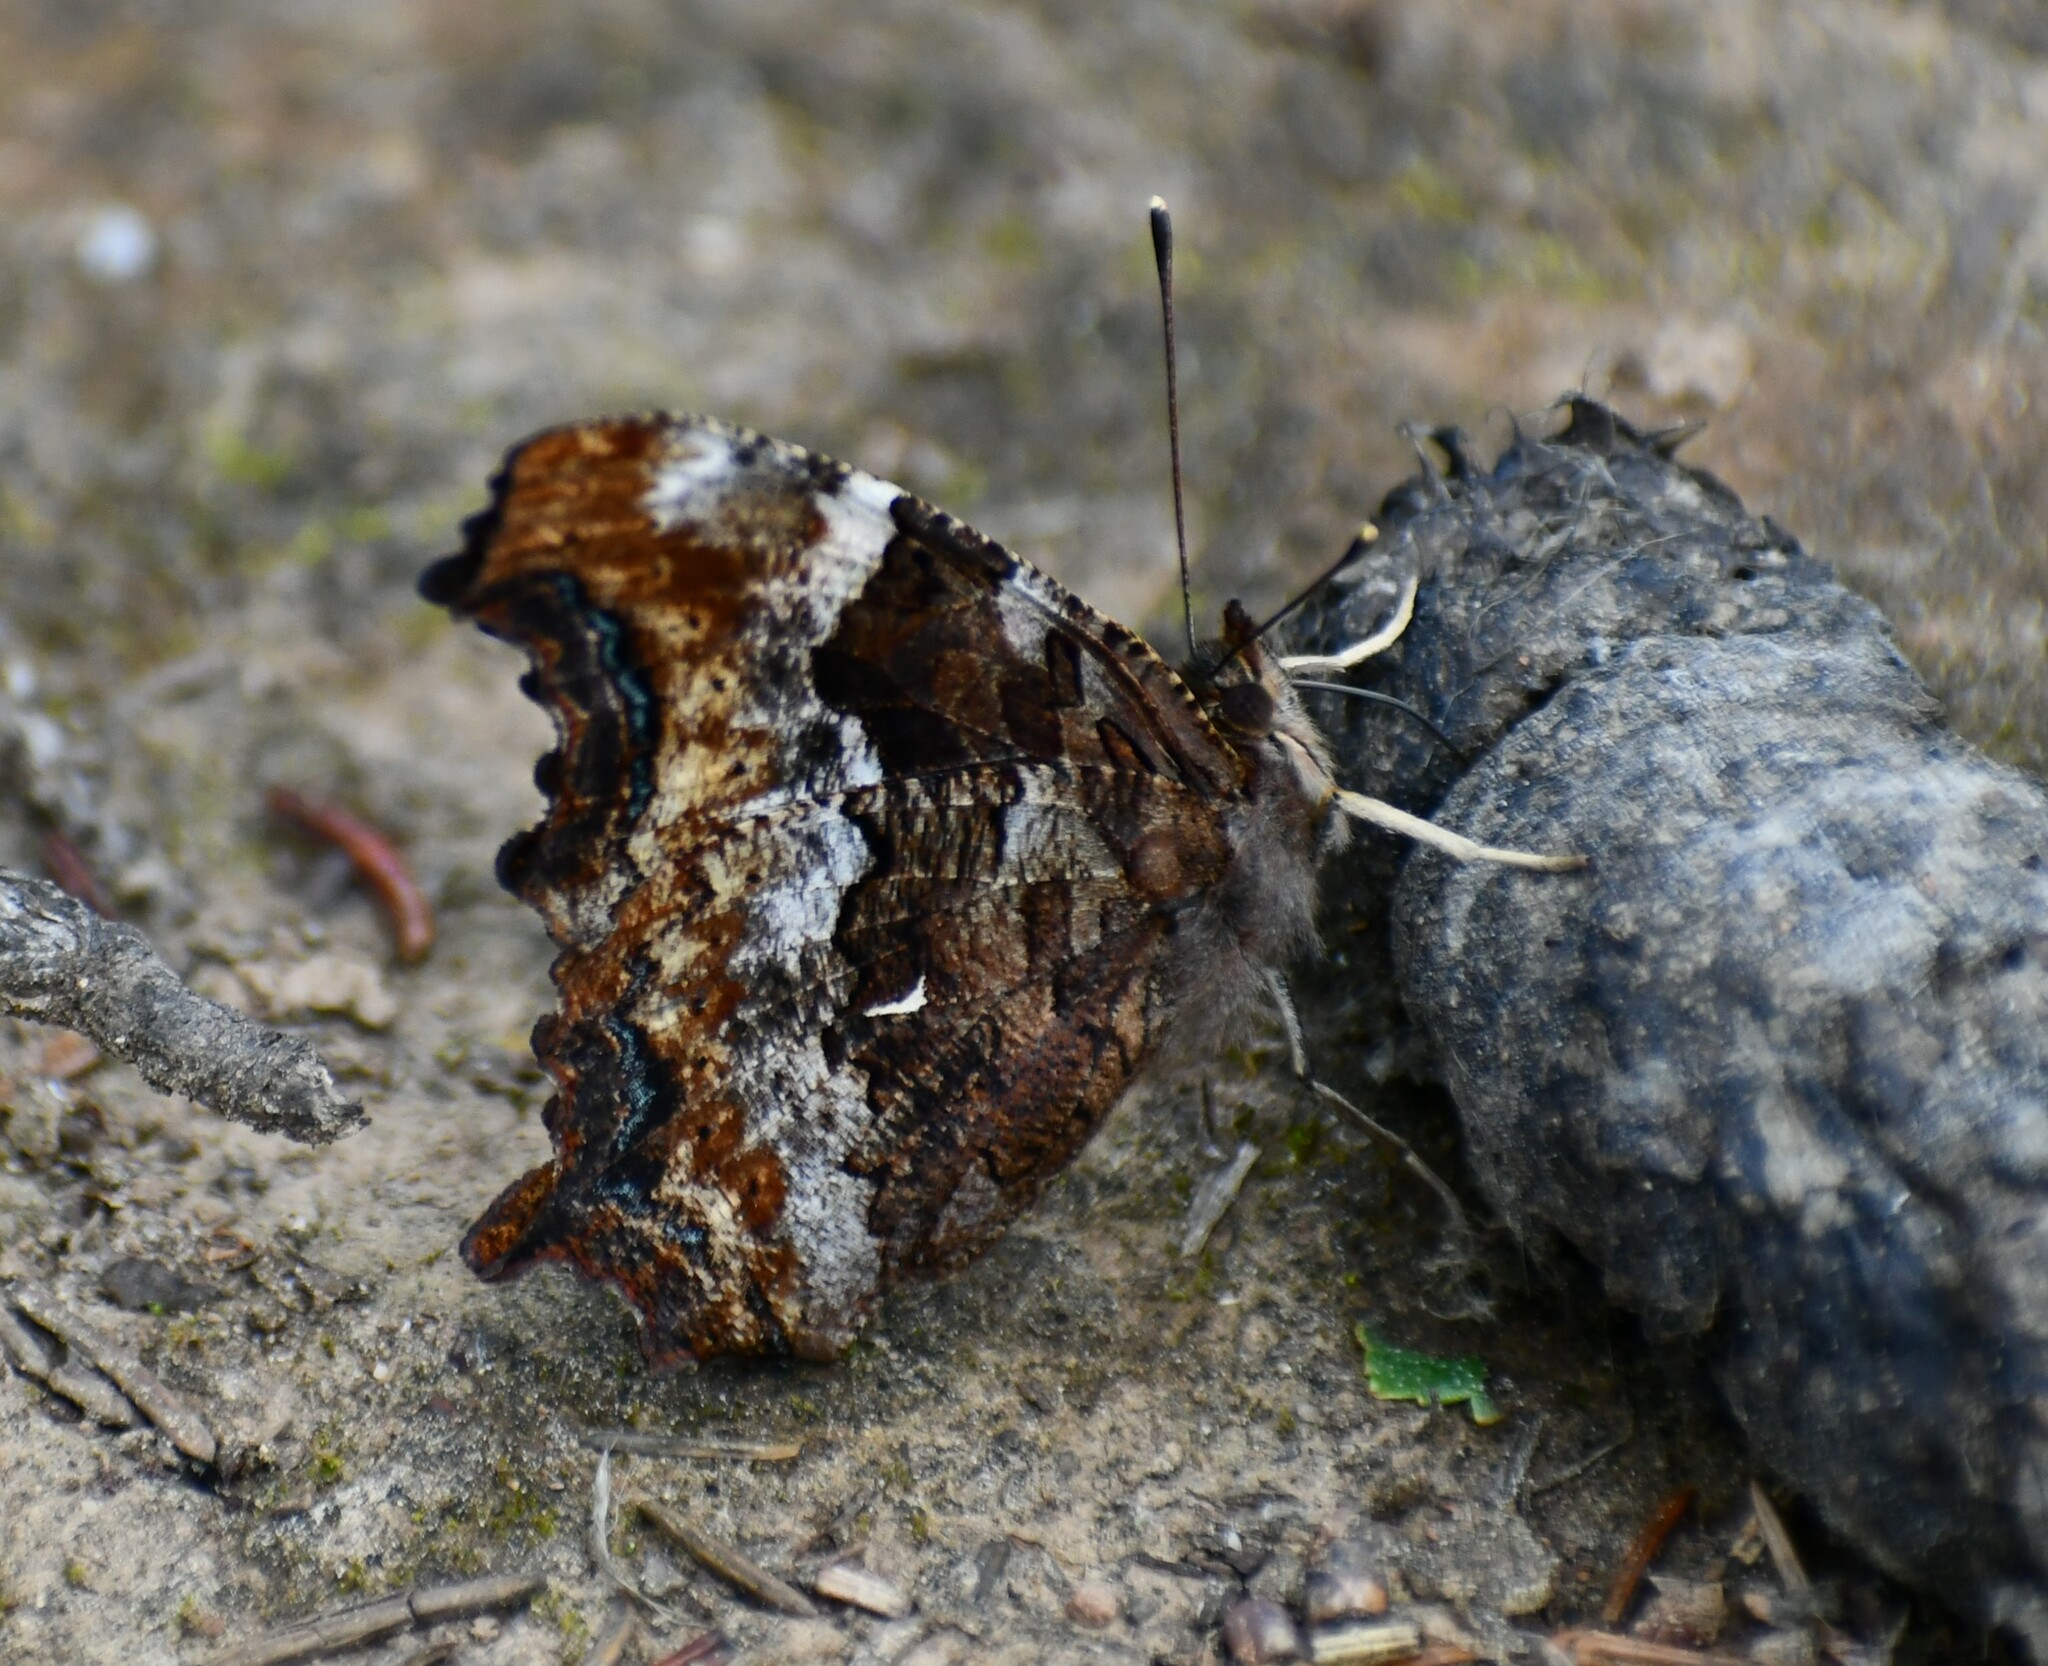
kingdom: Animalia
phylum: Arthropoda
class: Insecta
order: Lepidoptera
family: Nymphalidae
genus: Polygonia
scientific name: Polygonia vaualbum
